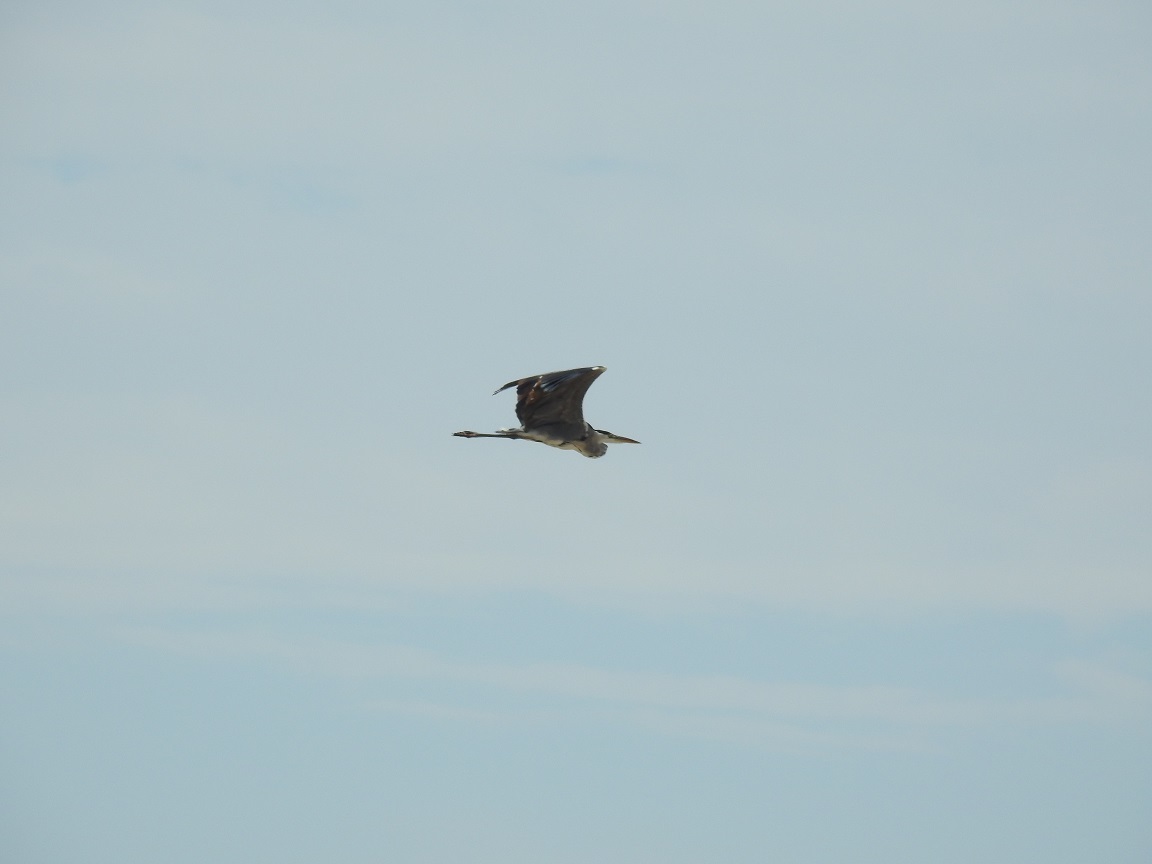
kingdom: Animalia
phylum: Chordata
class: Aves
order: Pelecaniformes
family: Ardeidae
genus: Ardea
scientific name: Ardea cinerea
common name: Grey heron
